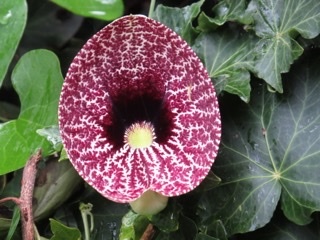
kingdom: Plantae
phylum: Tracheophyta
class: Magnoliopsida
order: Piperales
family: Aristolochiaceae
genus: Aristolochia
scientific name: Aristolochia littoralis
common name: Duck
